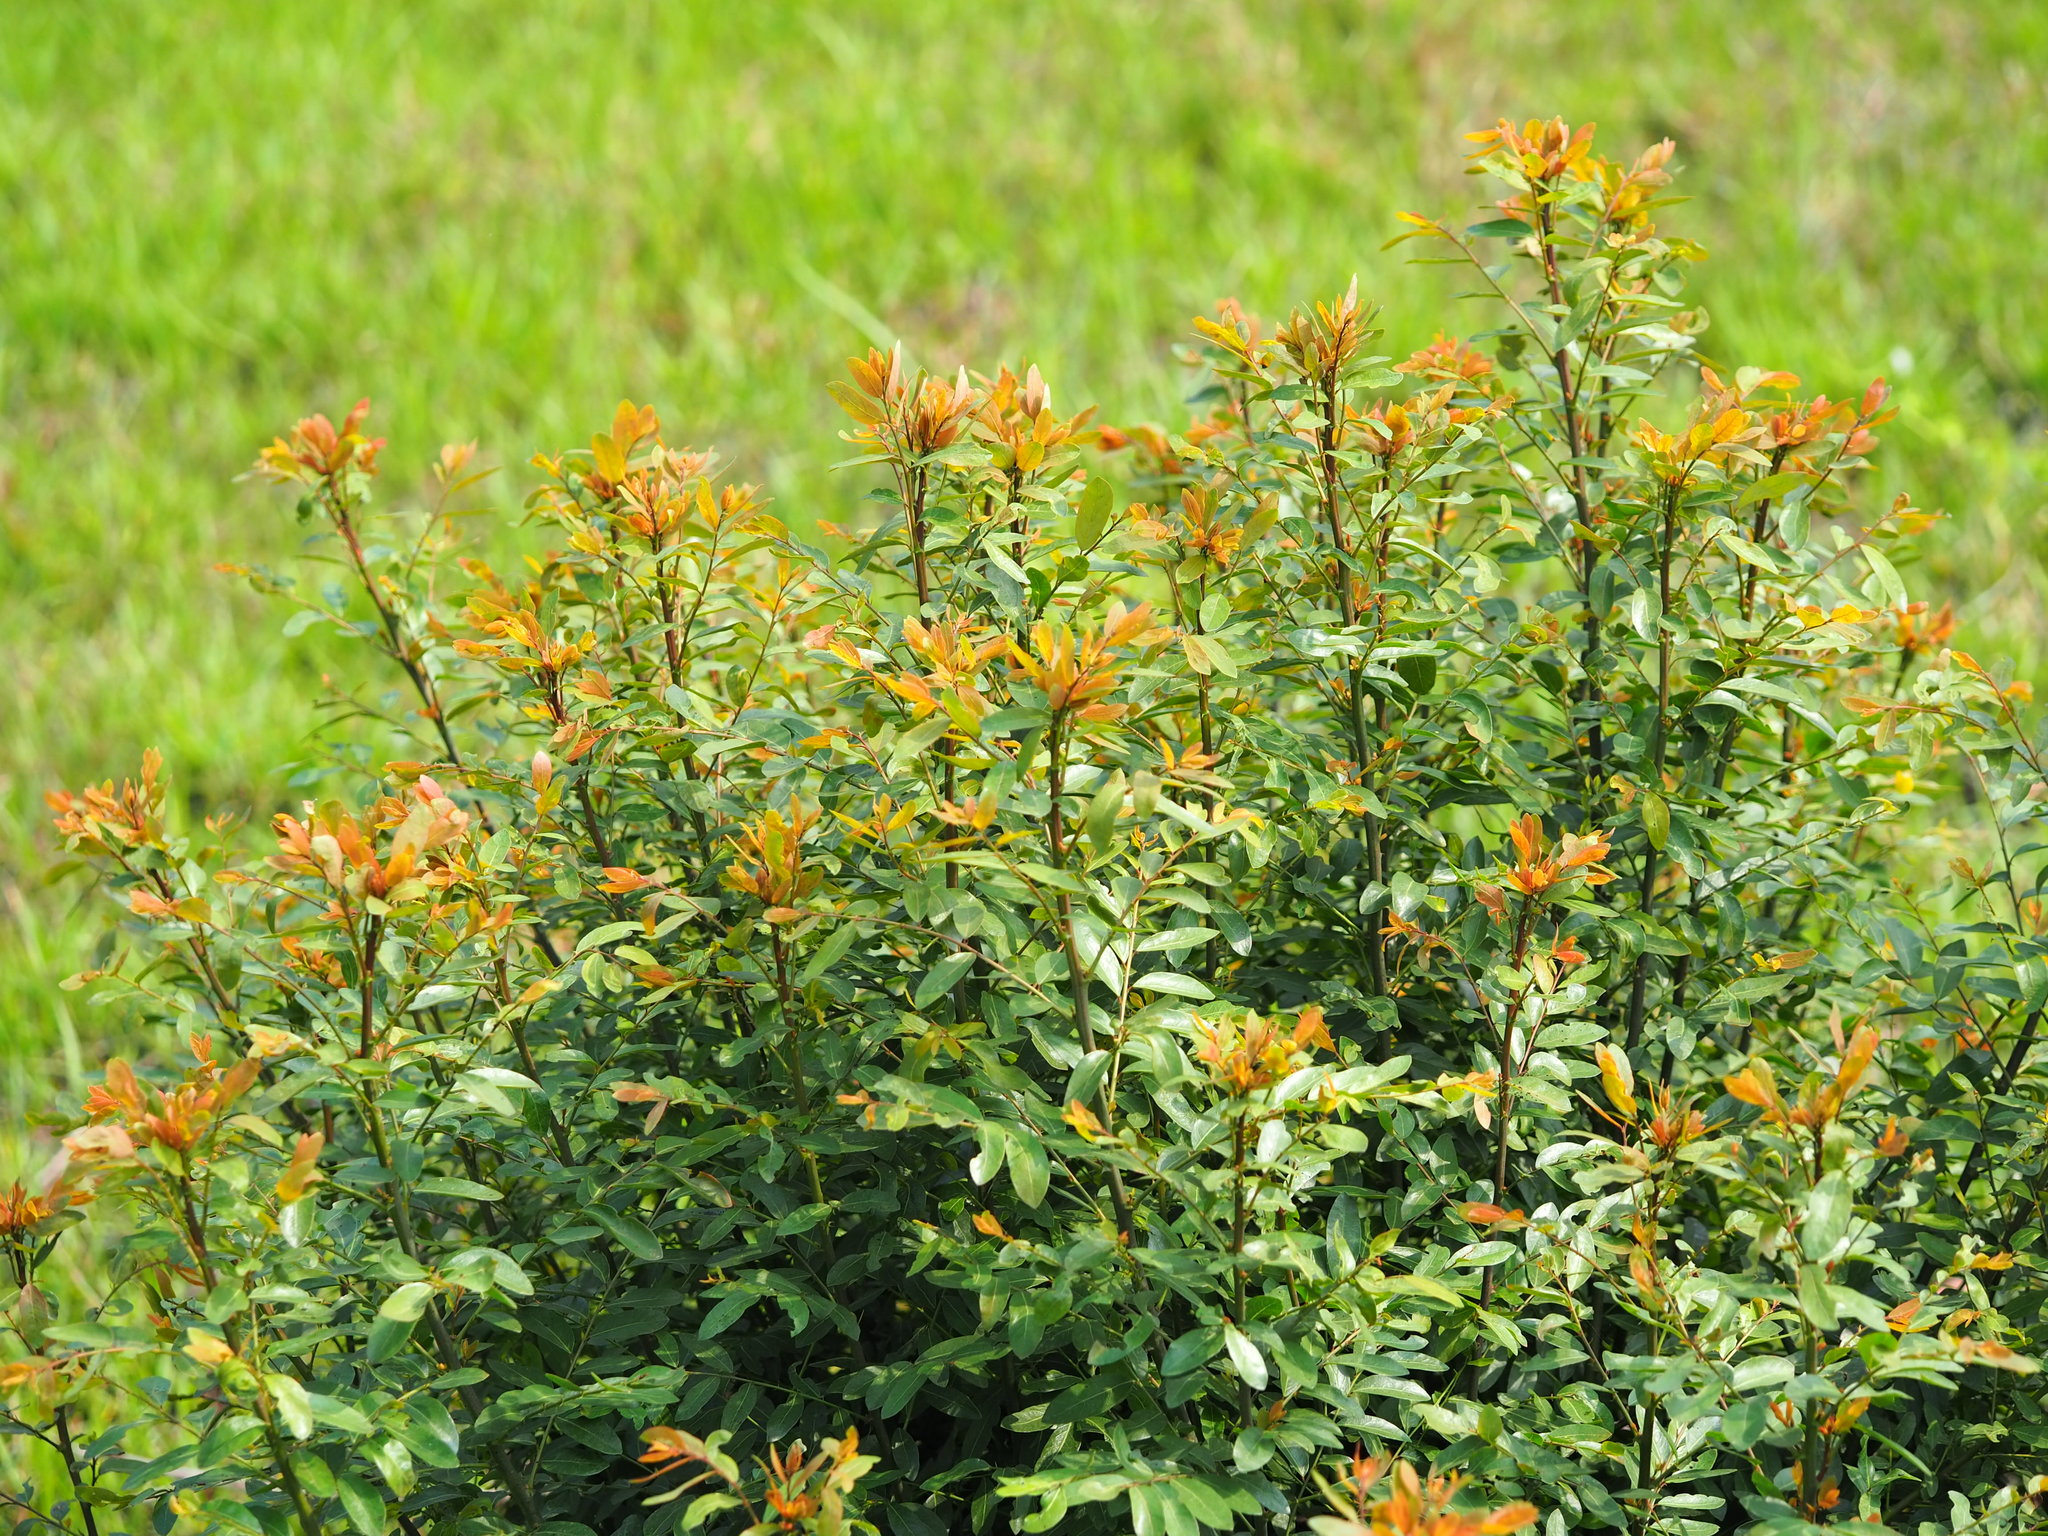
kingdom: Plantae
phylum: Tracheophyta
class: Magnoliopsida
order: Malpighiales
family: Phyllanthaceae
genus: Phyllanthus
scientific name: Phyllanthus reticulatus
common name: Potato bush
